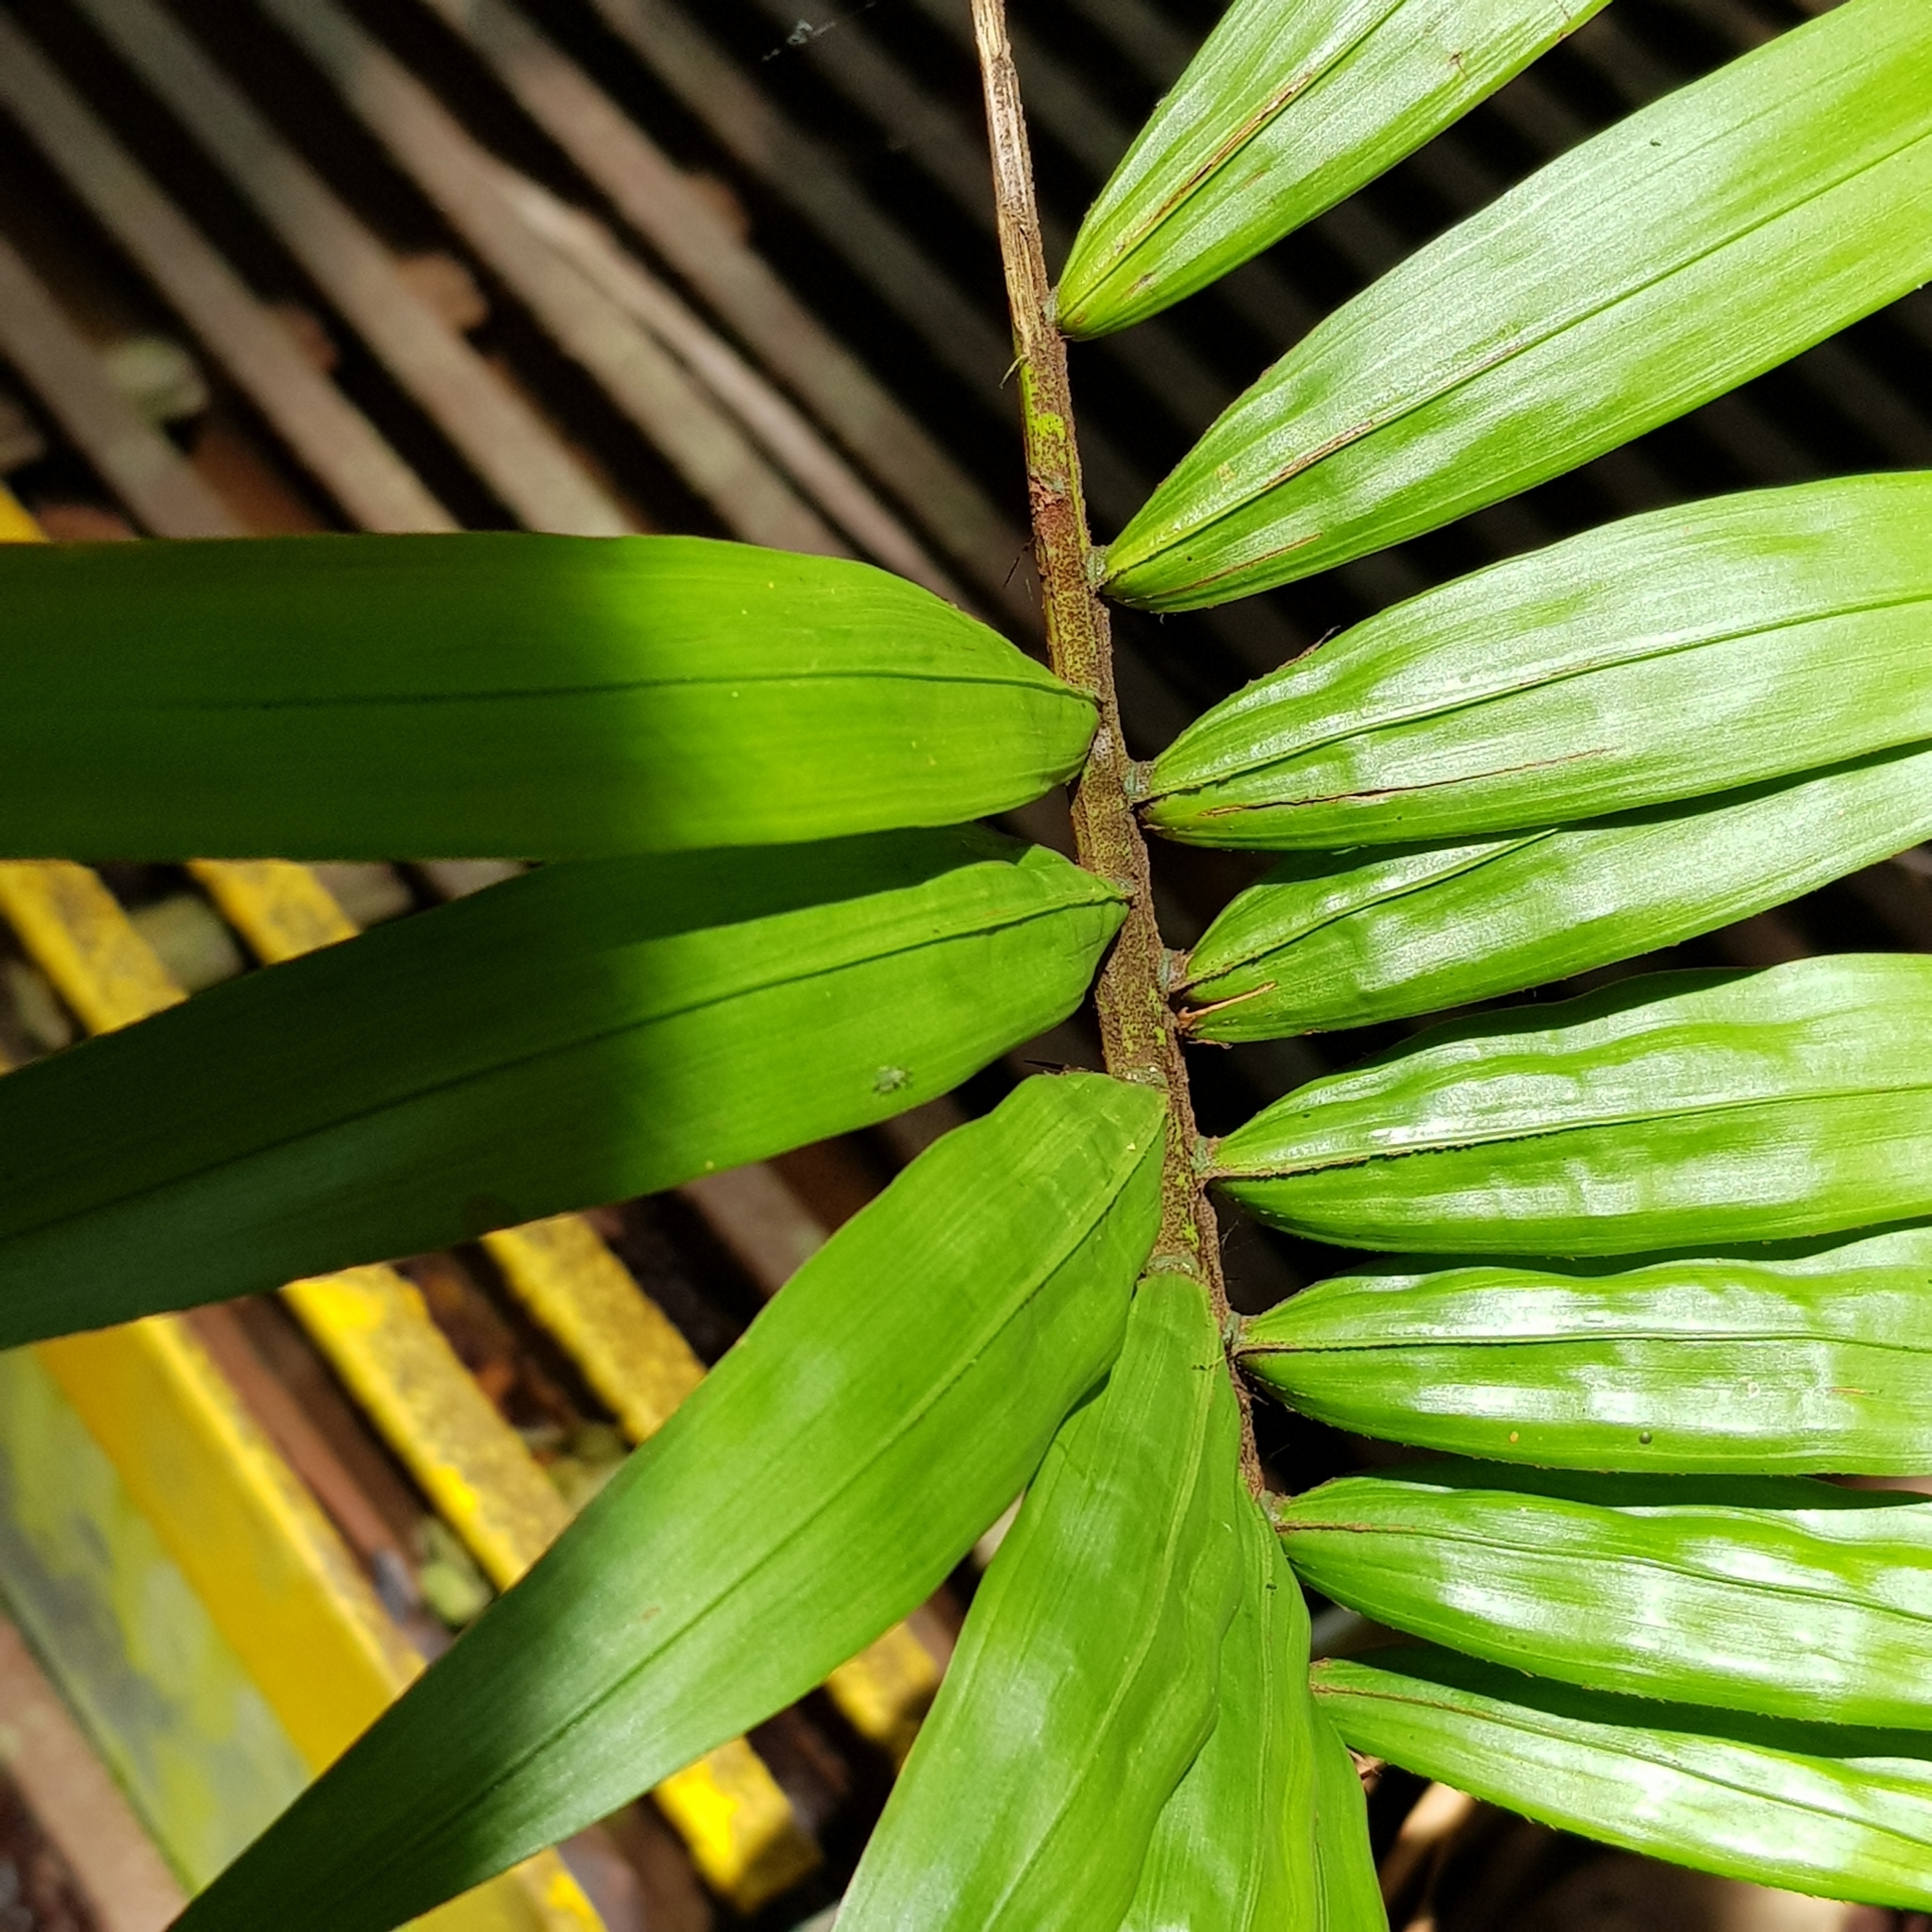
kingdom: Plantae
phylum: Tracheophyta
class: Liliopsida
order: Arecales
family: Arecaceae
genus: Oncosperma
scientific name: Oncosperma tigillarium
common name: Nibong
